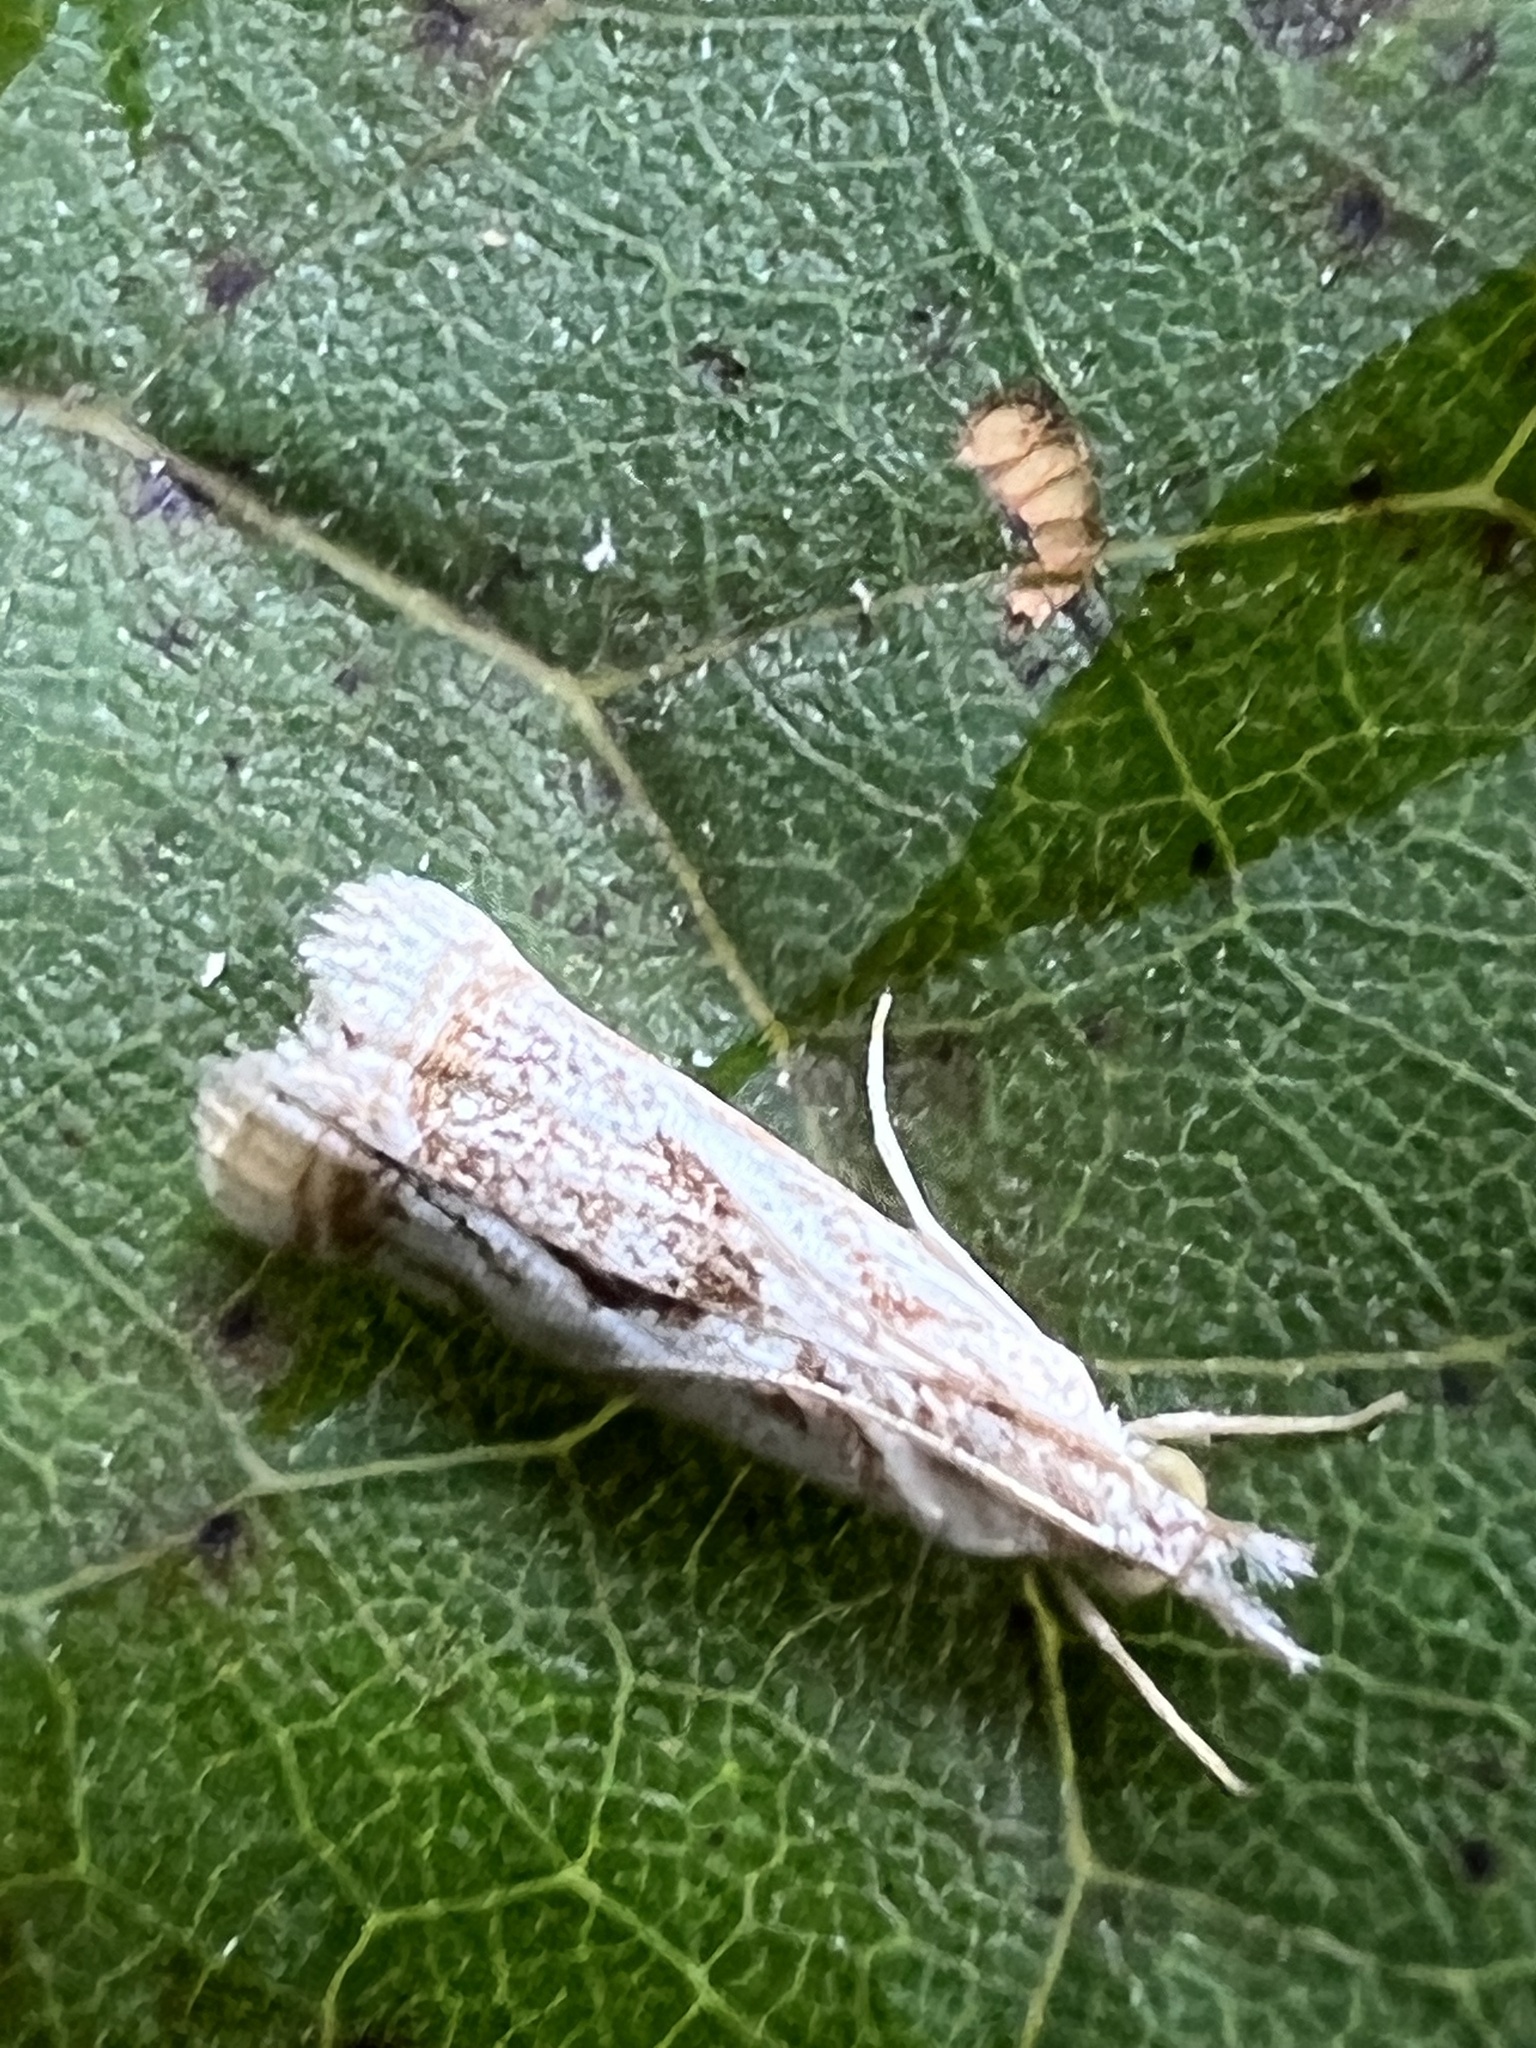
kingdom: Animalia
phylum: Arthropoda
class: Insecta
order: Lepidoptera
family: Crambidae
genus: Microcrambus
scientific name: Microcrambus elegans
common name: Elegant grass-veneer
